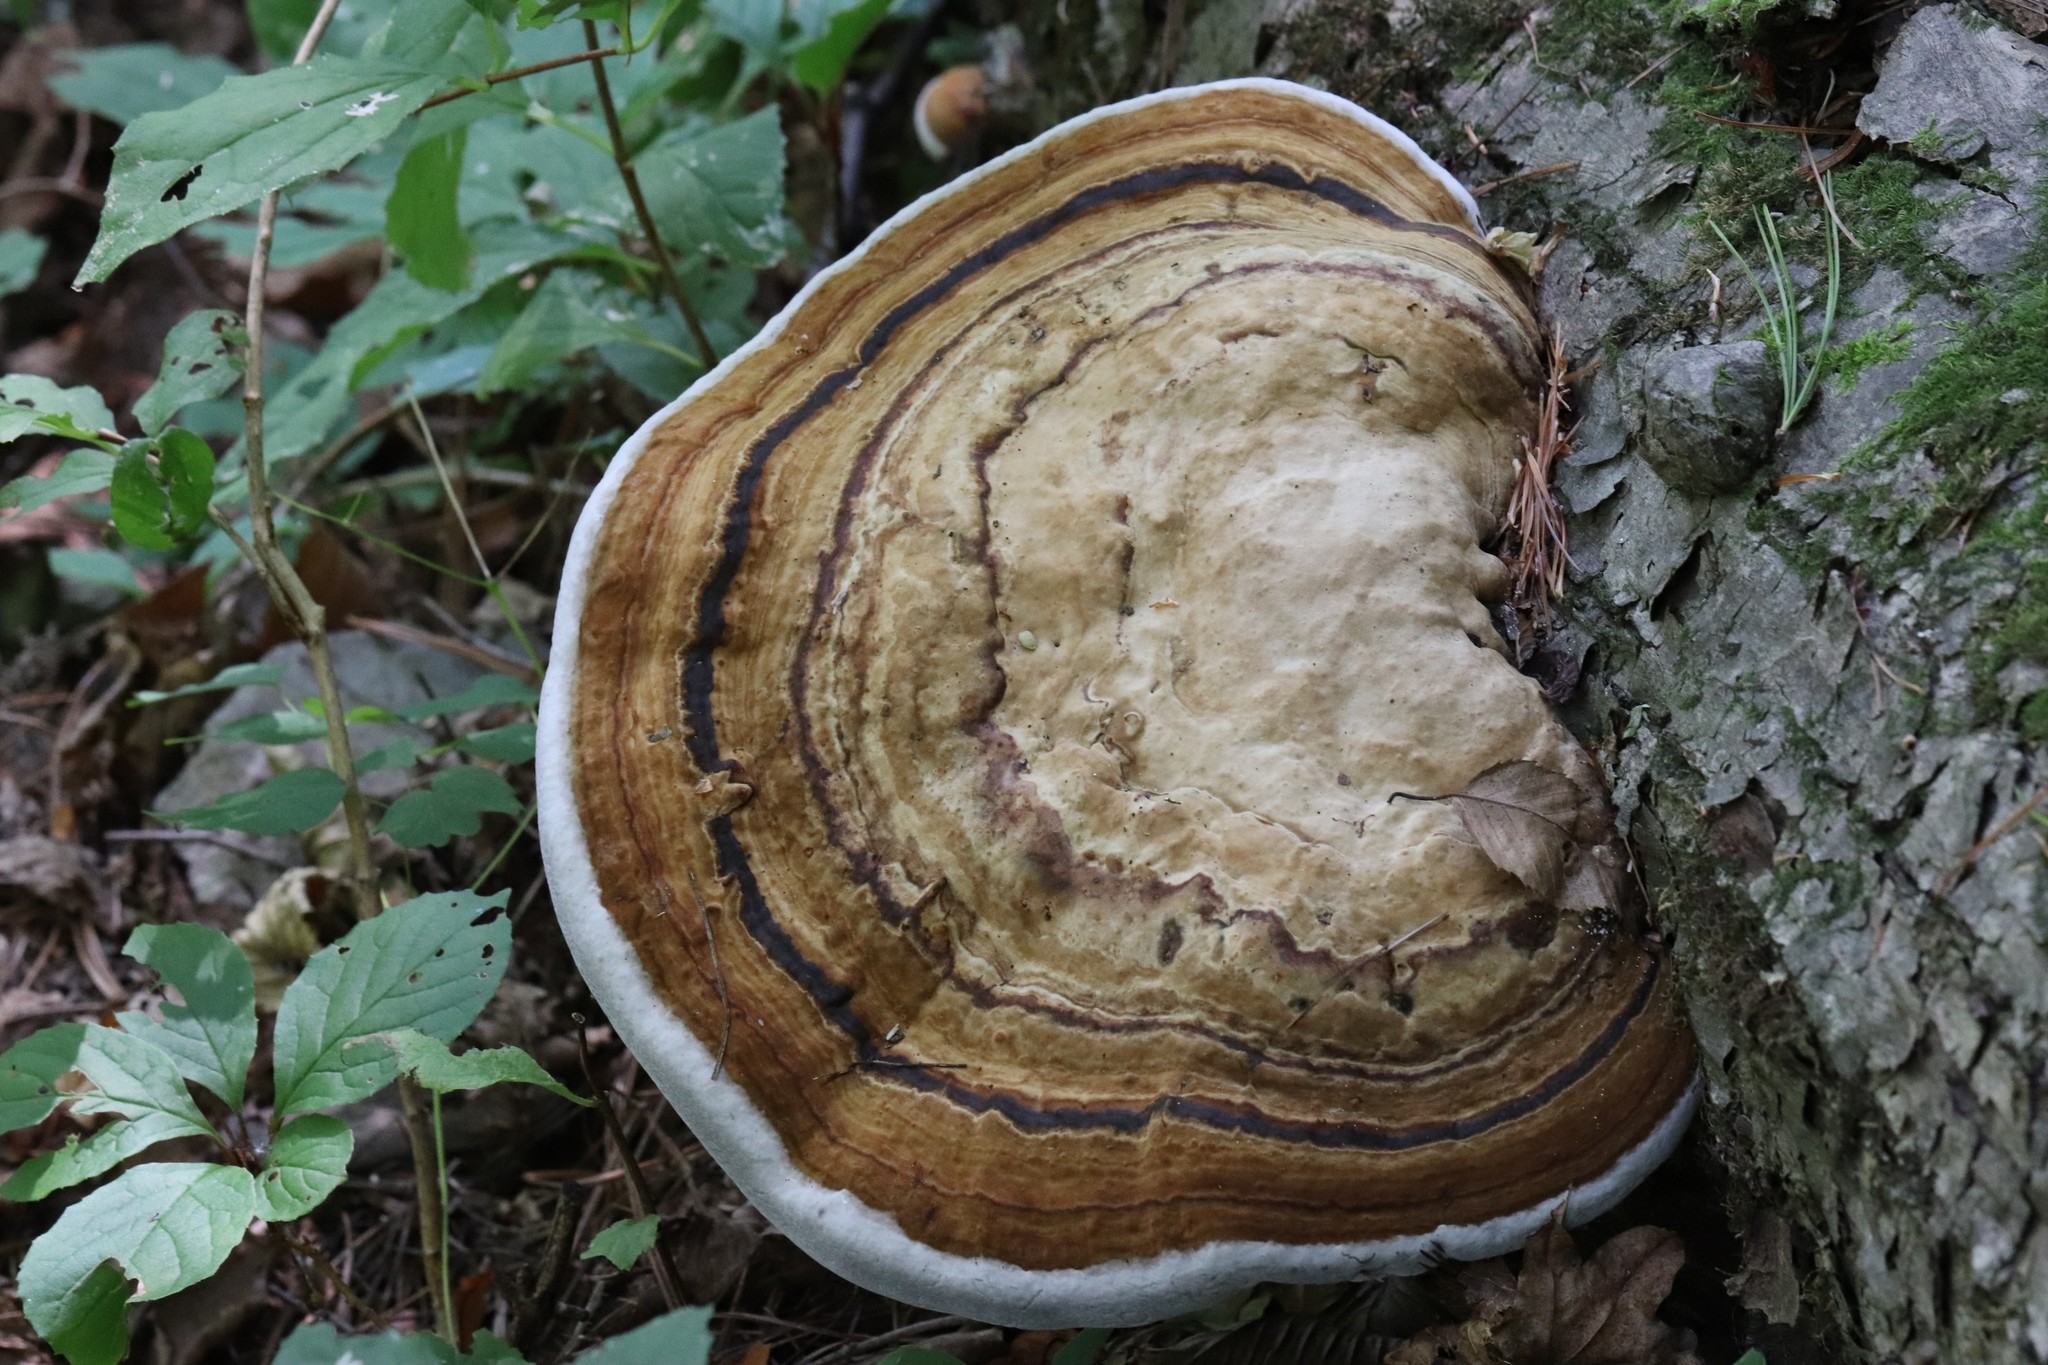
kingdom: Fungi
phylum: Basidiomycota
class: Agaricomycetes
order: Polyporales
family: Polyporaceae
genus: Fomes
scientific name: Fomes fomentarius
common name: Hoof fungus
